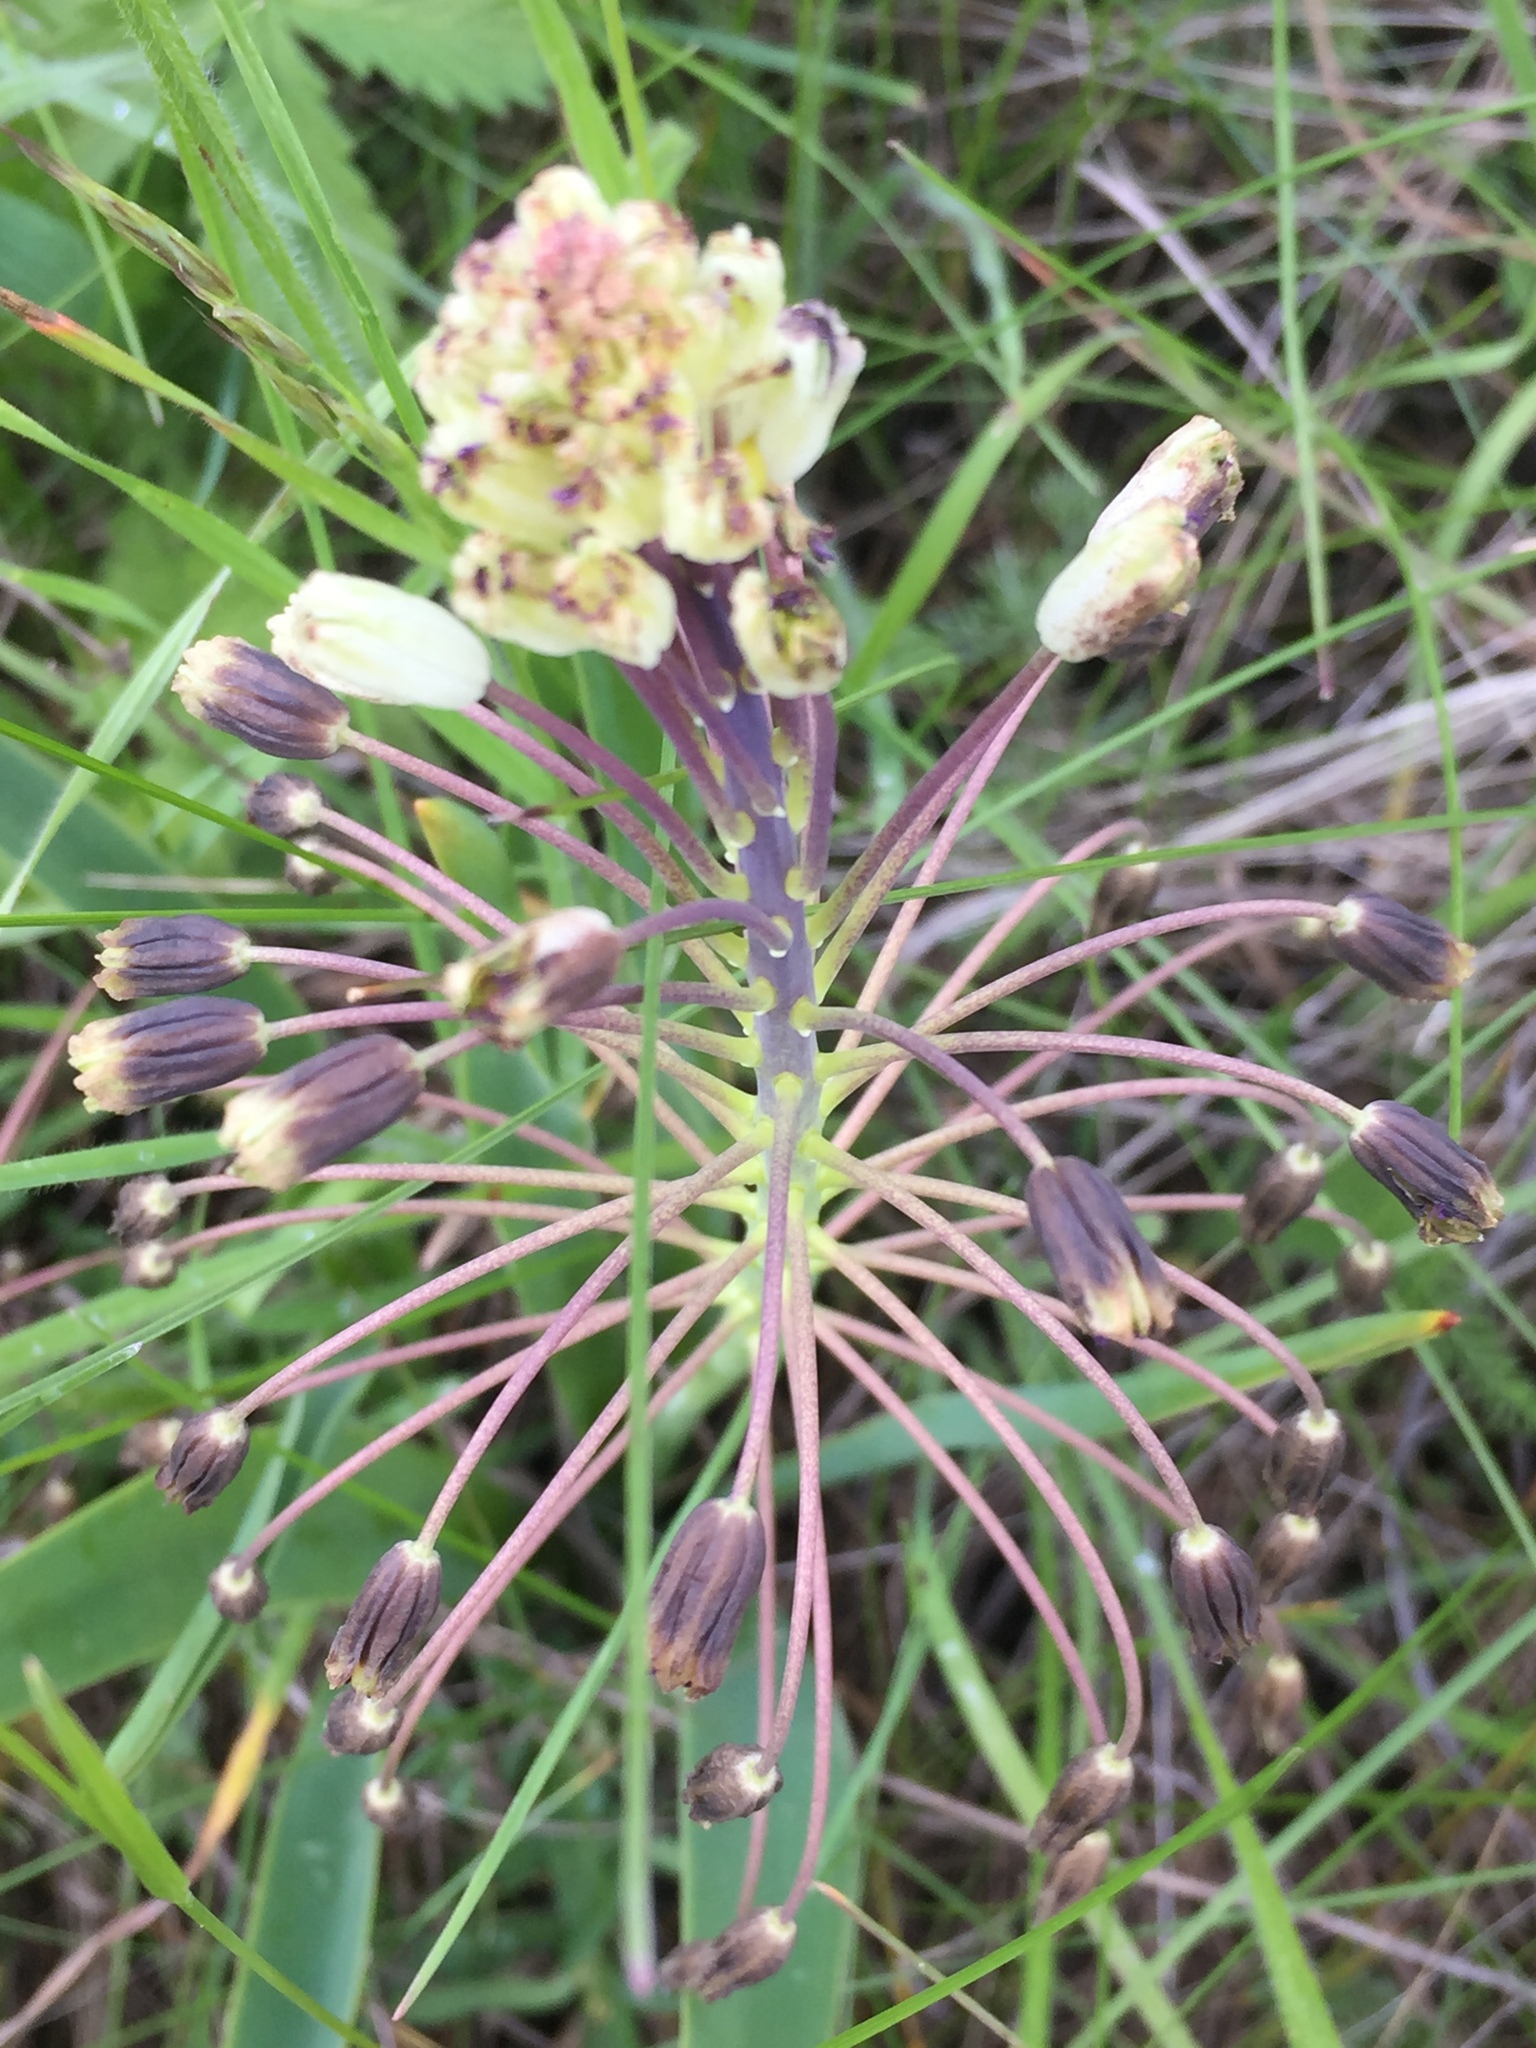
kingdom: Plantae
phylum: Tracheophyta
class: Liliopsida
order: Asparagales
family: Asparagaceae
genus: Bellevalia
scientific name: Bellevalia speciosa
